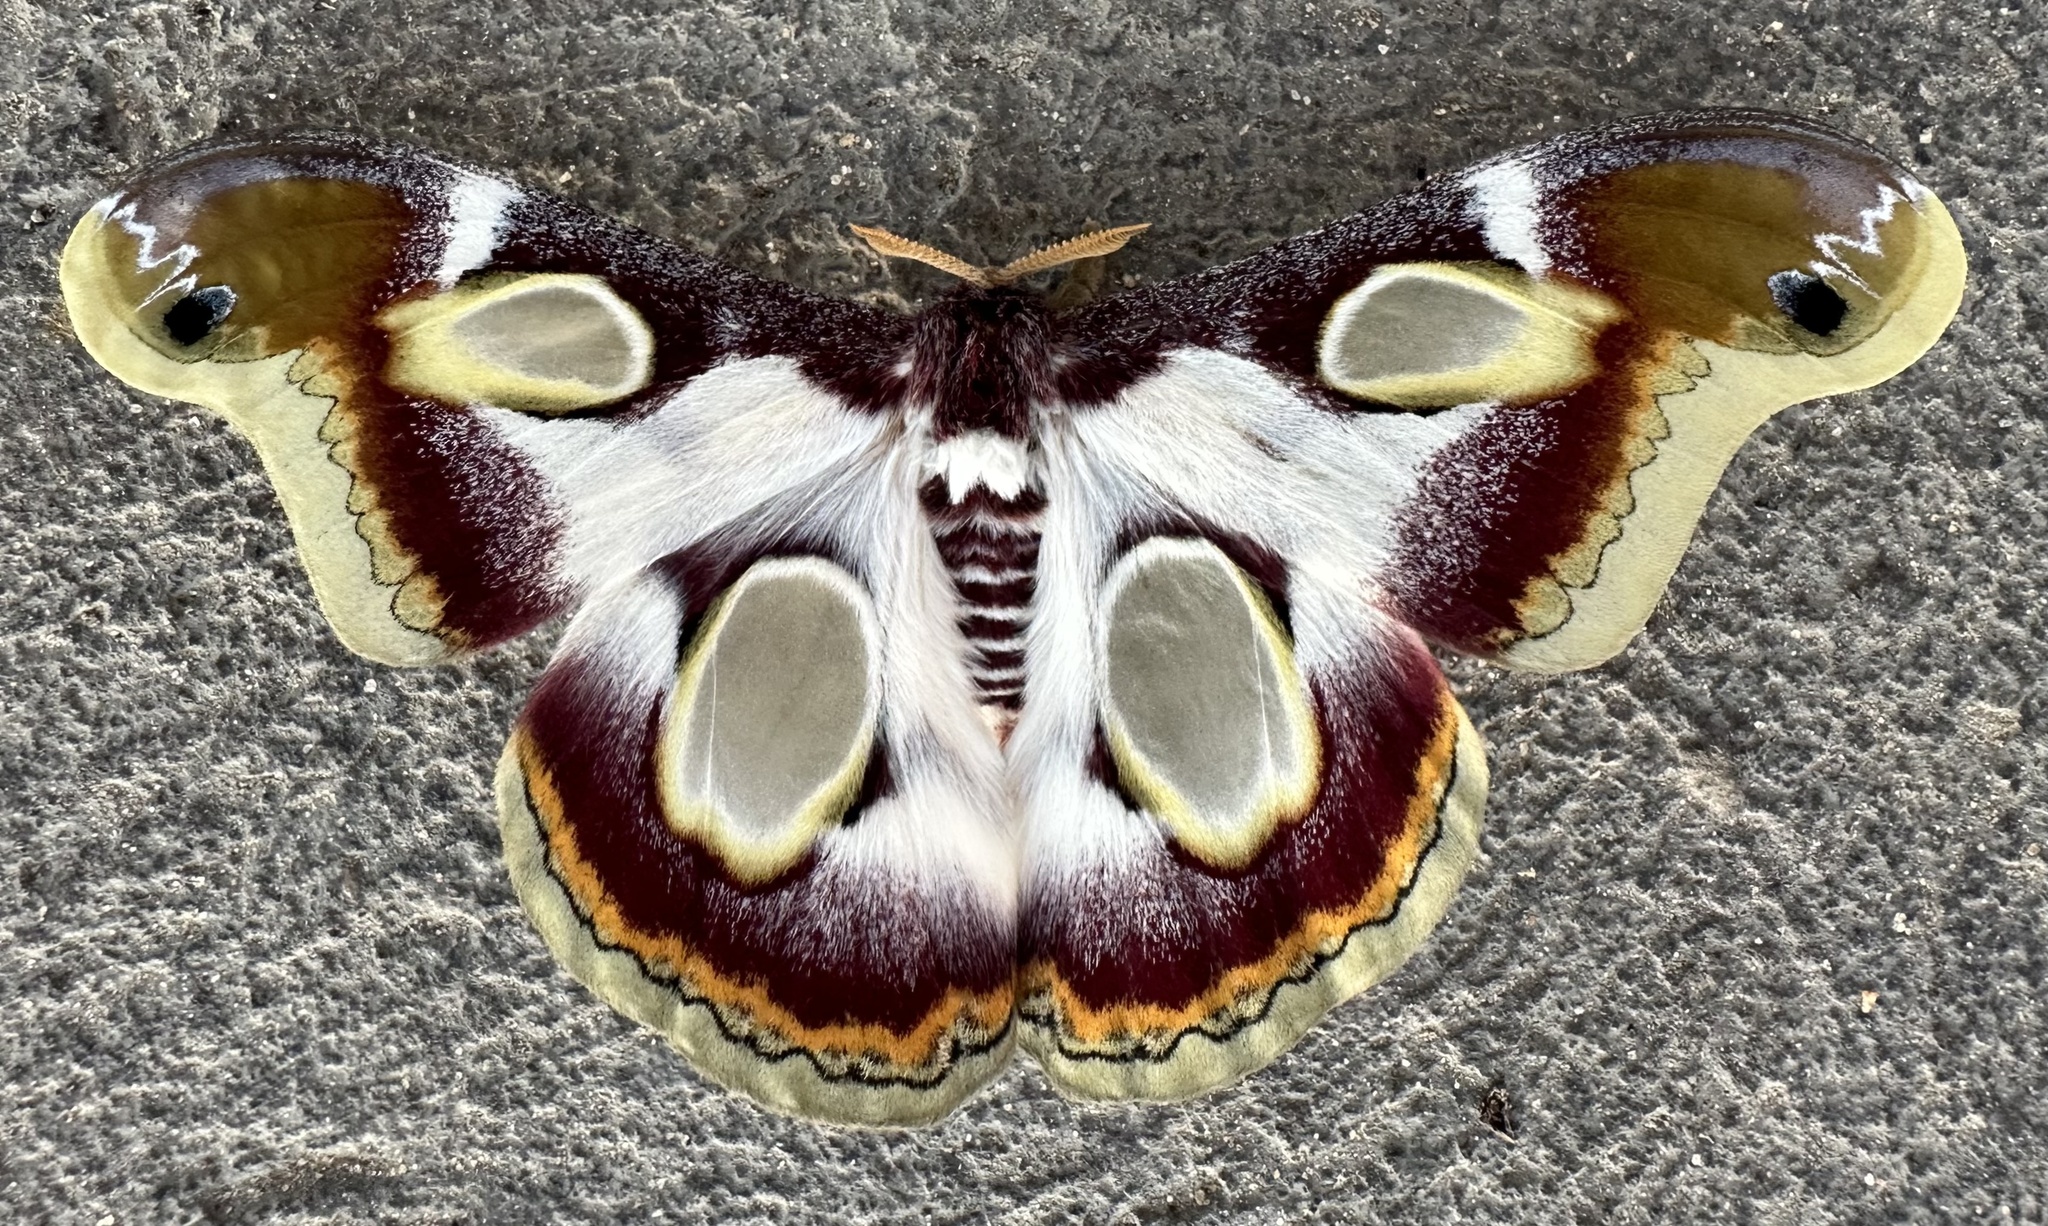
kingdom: Animalia
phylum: Arthropoda
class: Insecta
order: Lepidoptera
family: Saturniidae
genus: Epiphora
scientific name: Epiphora bauhiniae
